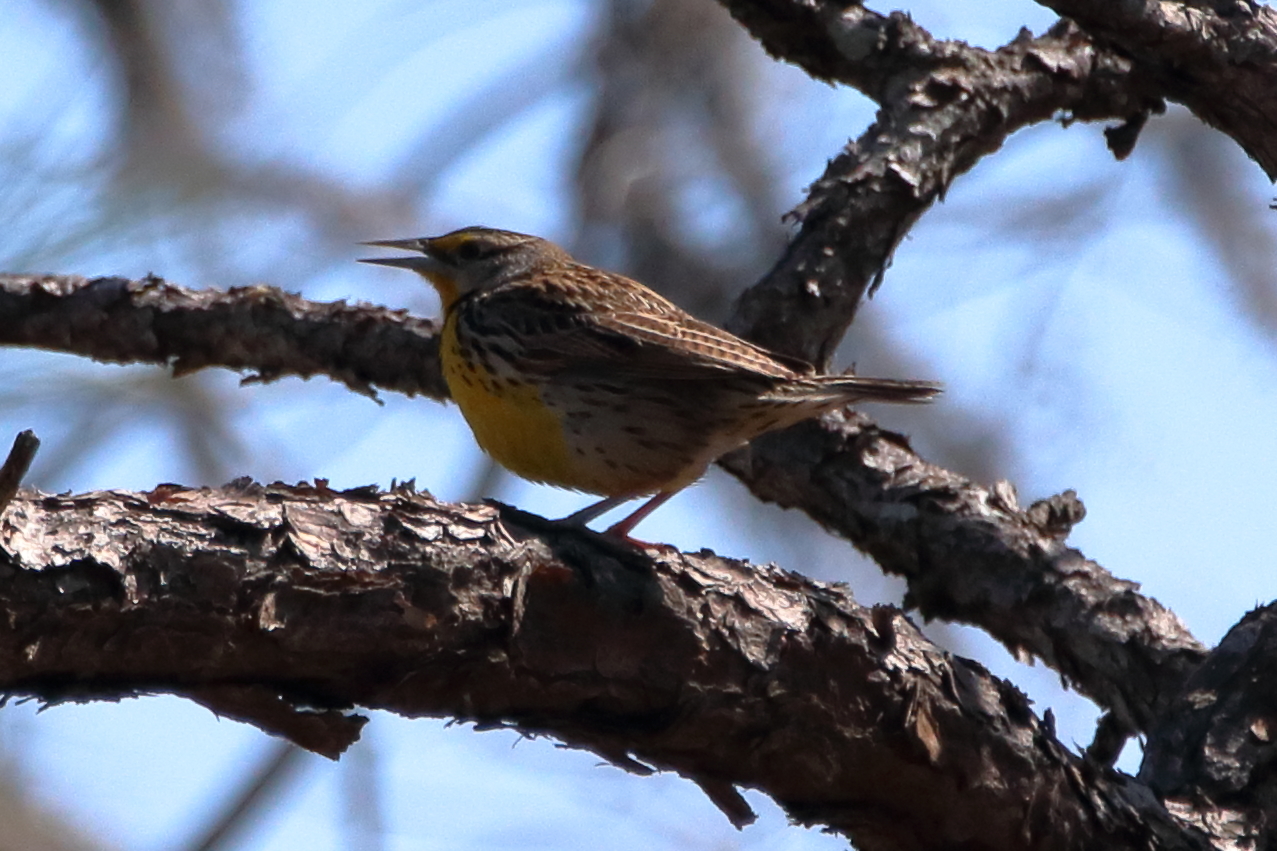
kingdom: Animalia
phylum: Chordata
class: Aves
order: Passeriformes
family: Icteridae
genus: Sturnella
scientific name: Sturnella magna
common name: Eastern meadowlark
